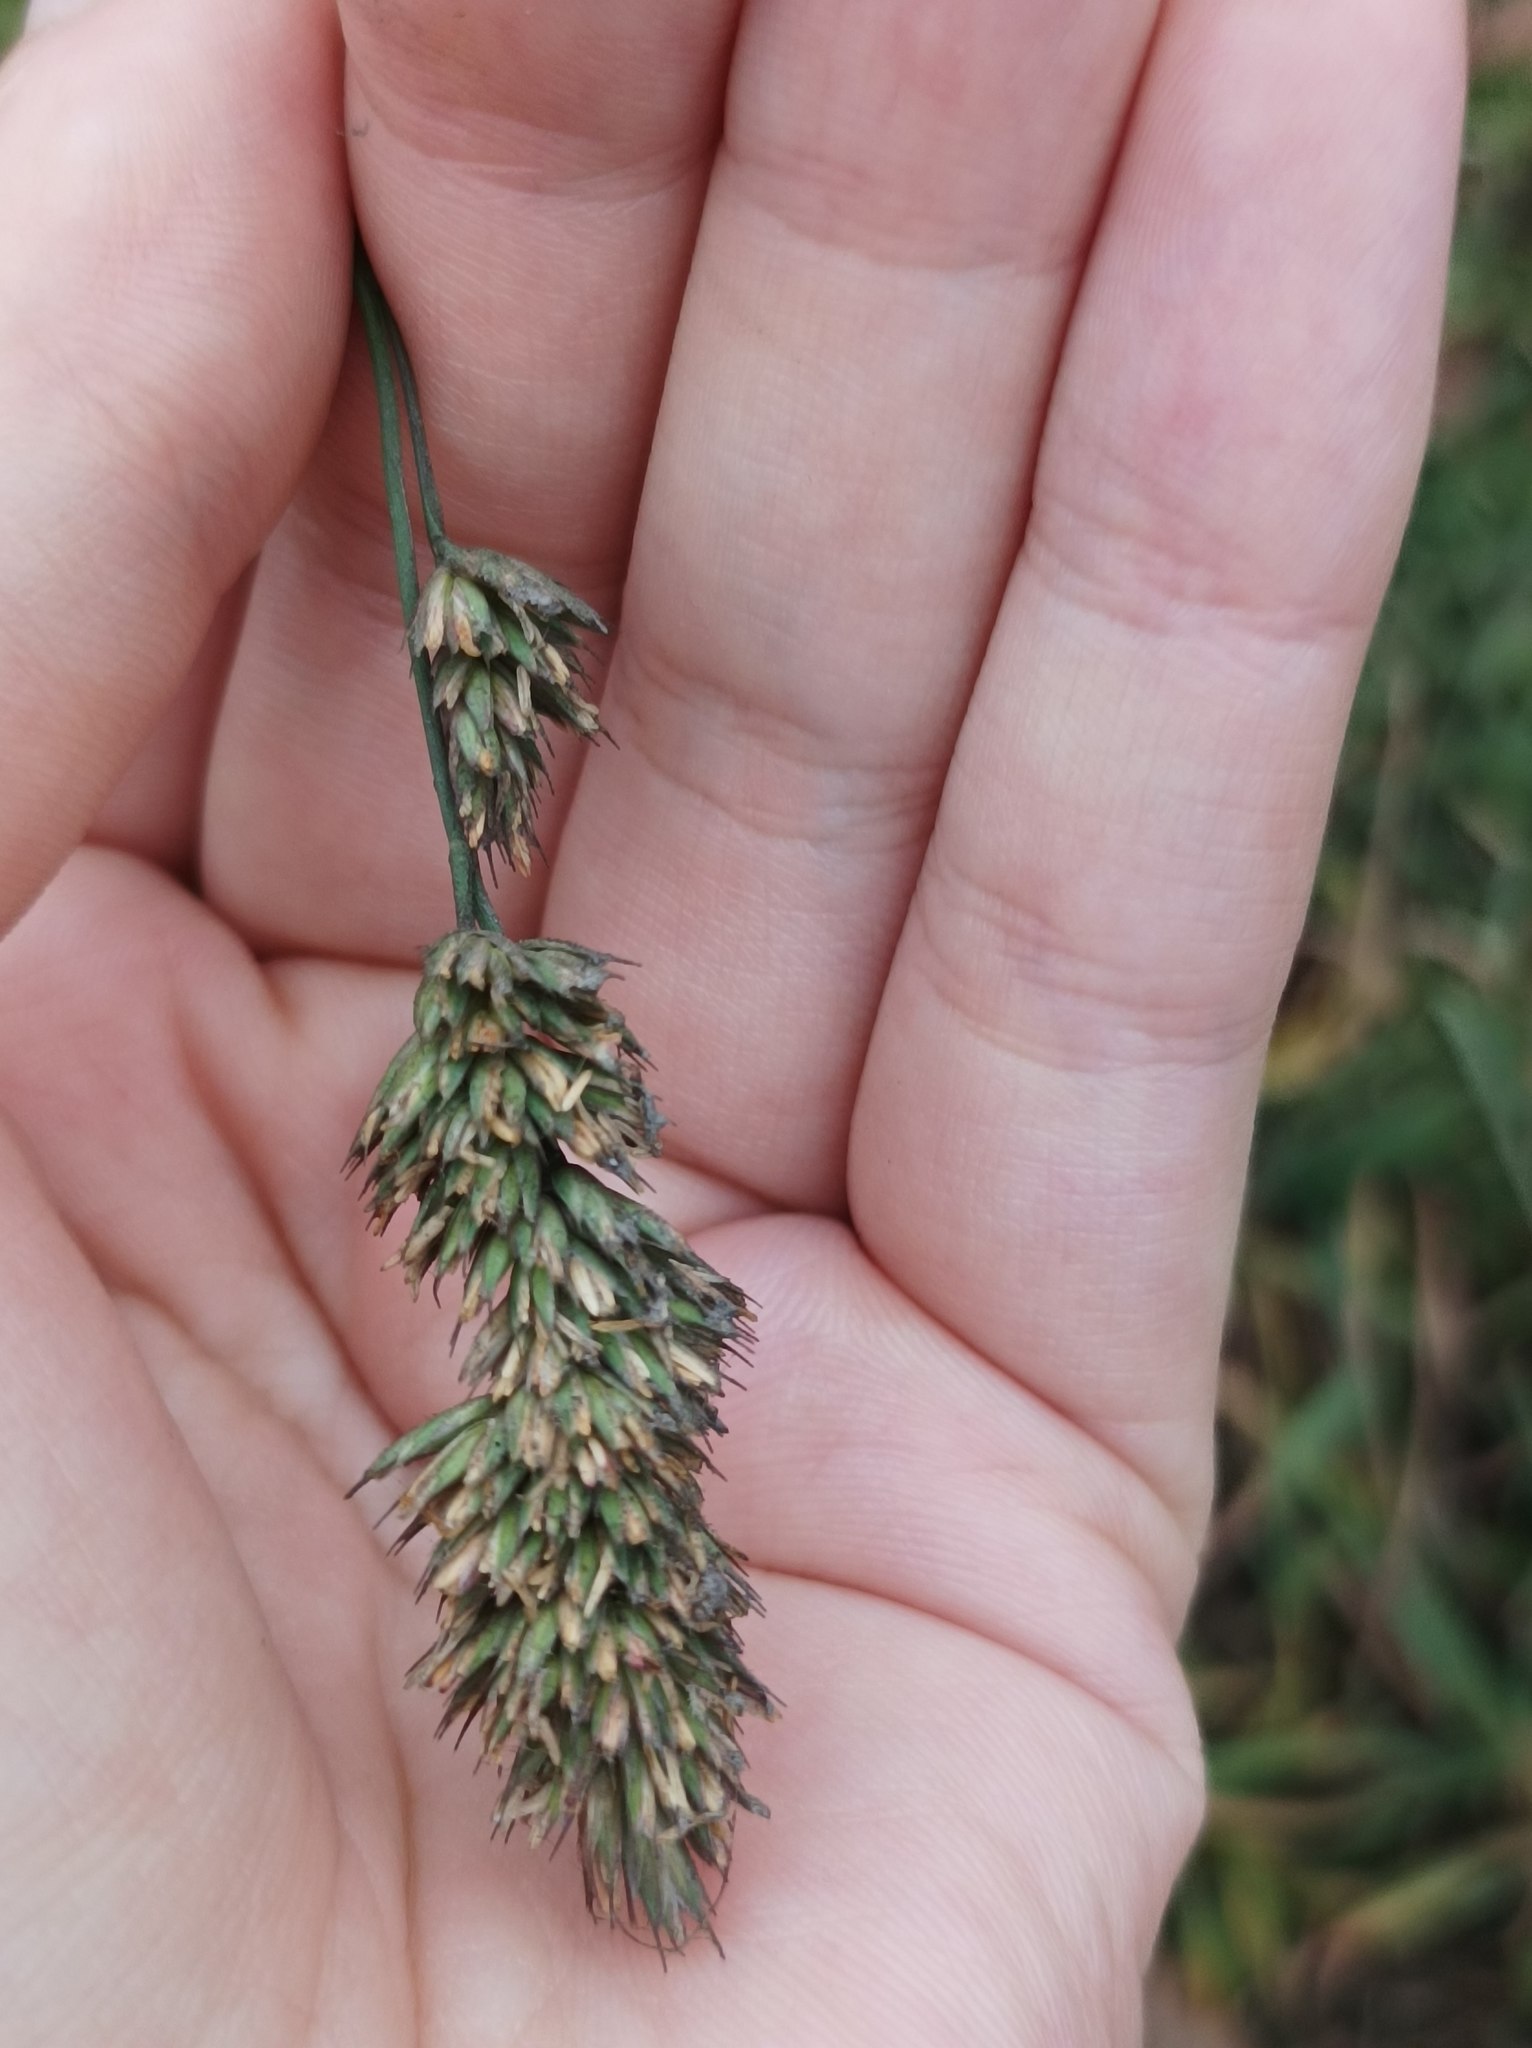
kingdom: Plantae
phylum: Tracheophyta
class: Liliopsida
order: Poales
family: Poaceae
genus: Dactylis
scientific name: Dactylis glomerata
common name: Orchardgrass
